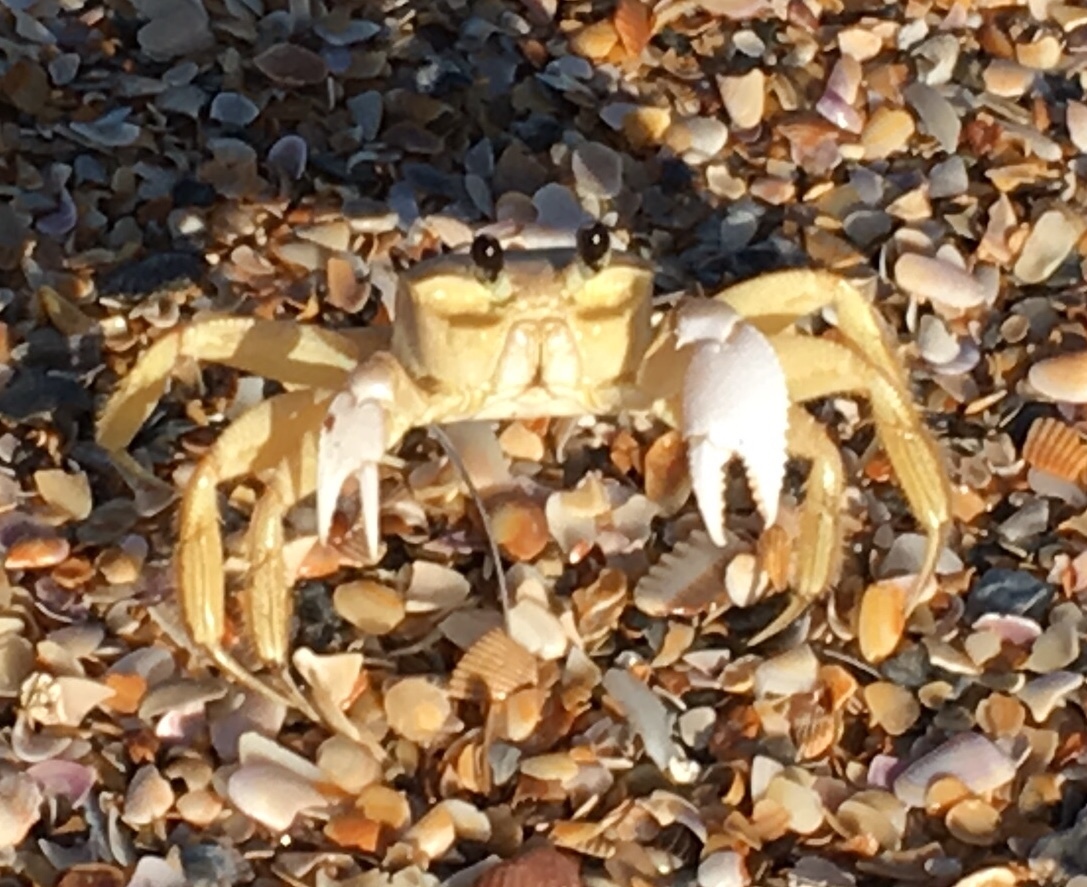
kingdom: Animalia
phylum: Arthropoda
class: Malacostraca
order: Decapoda
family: Ocypodidae
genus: Ocypode
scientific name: Ocypode quadrata
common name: Ghost crab
